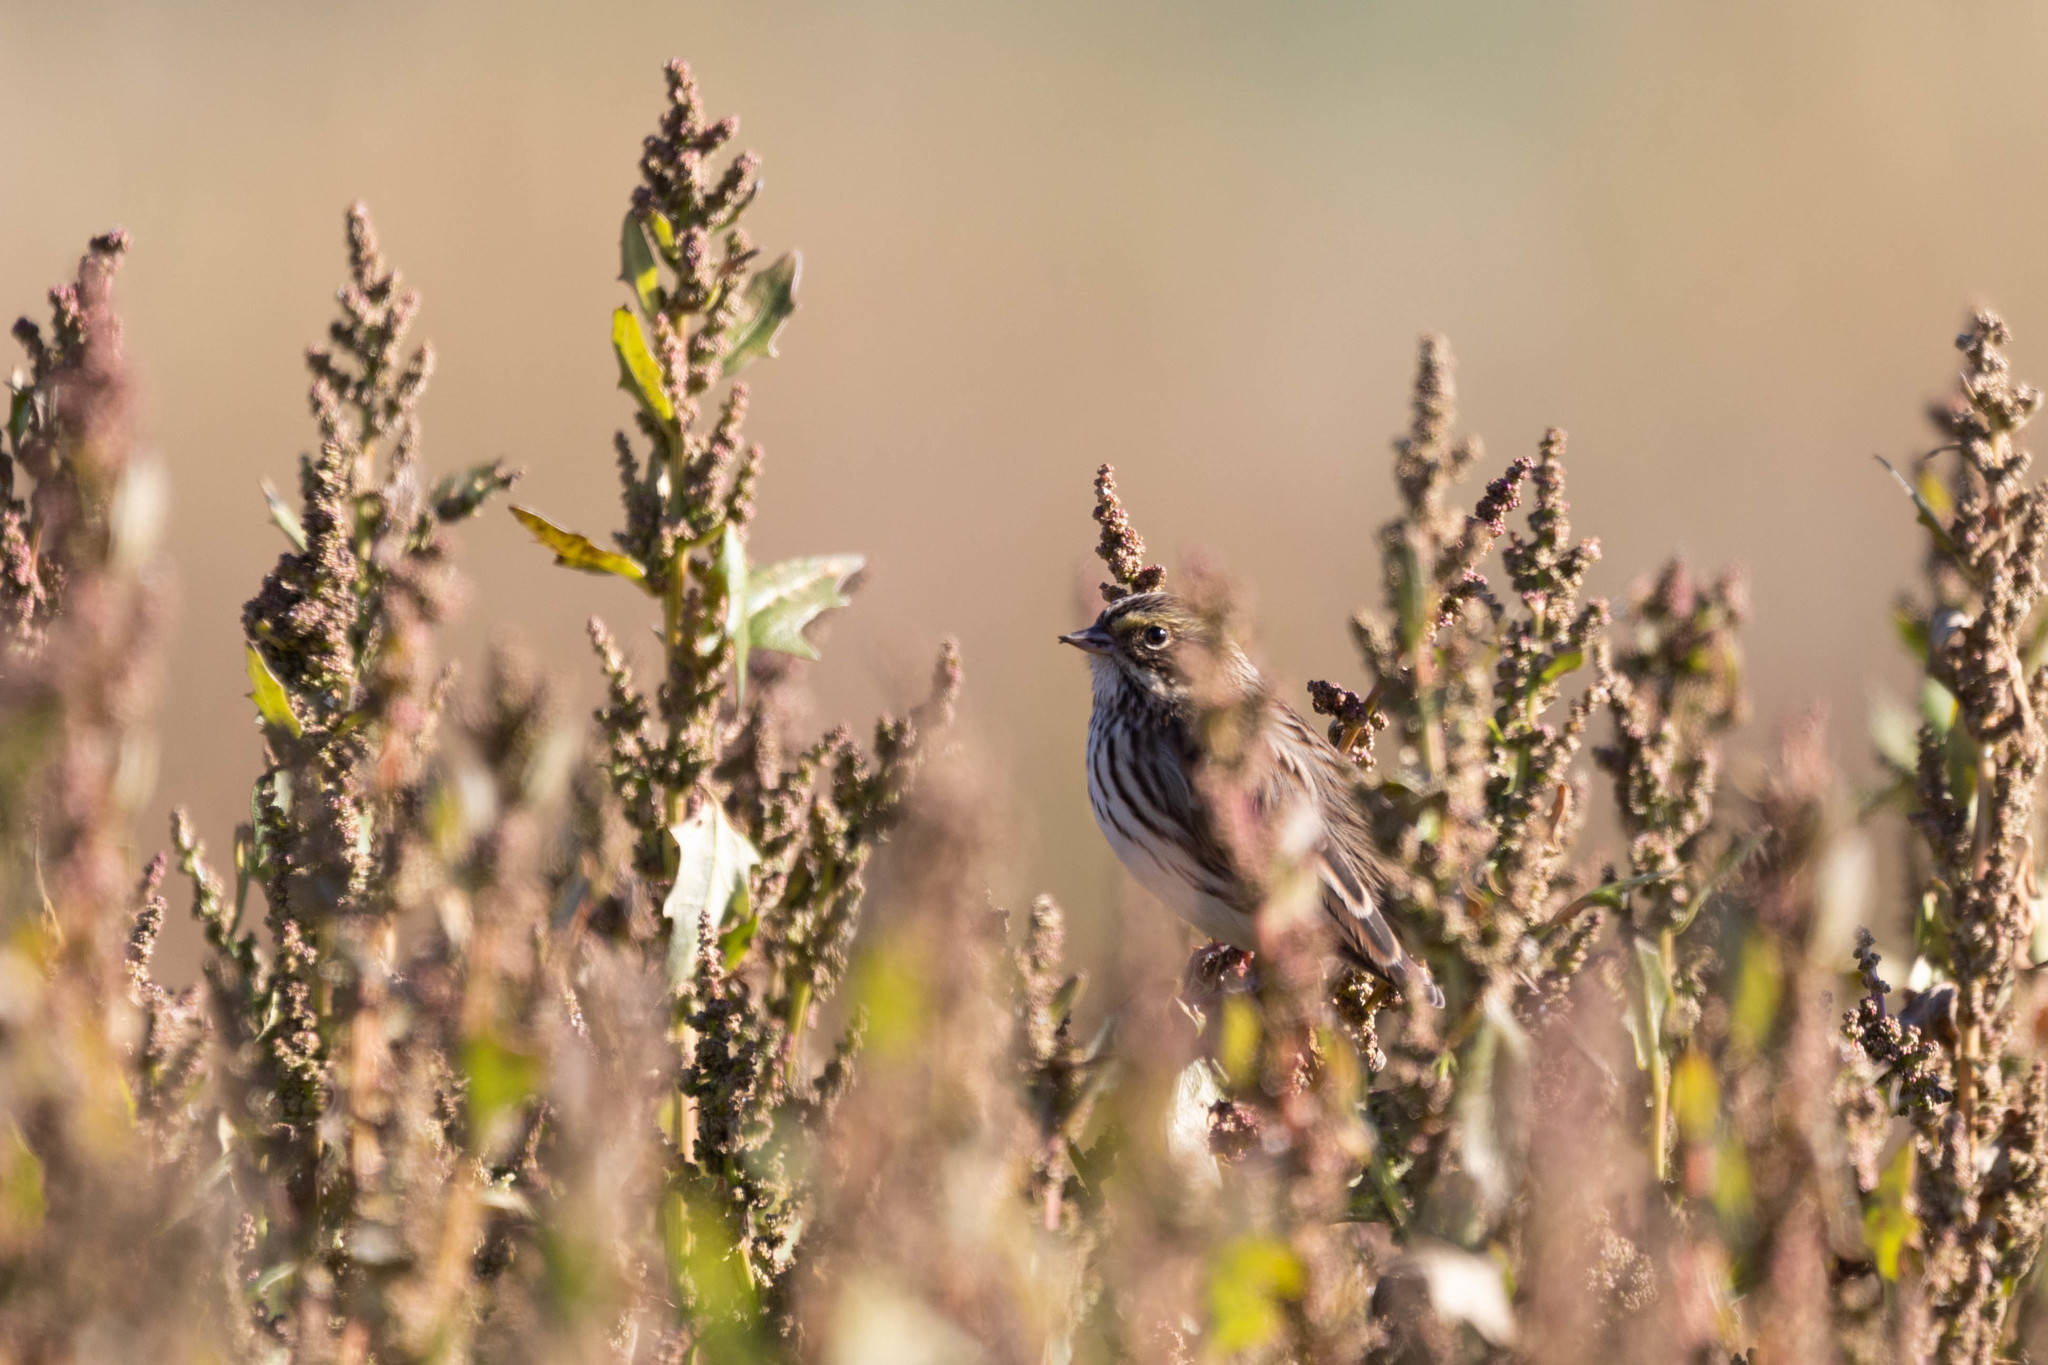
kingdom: Animalia
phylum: Chordata
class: Aves
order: Passeriformes
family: Passerellidae
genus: Passerculus
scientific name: Passerculus sandwichensis
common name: Savannah sparrow
